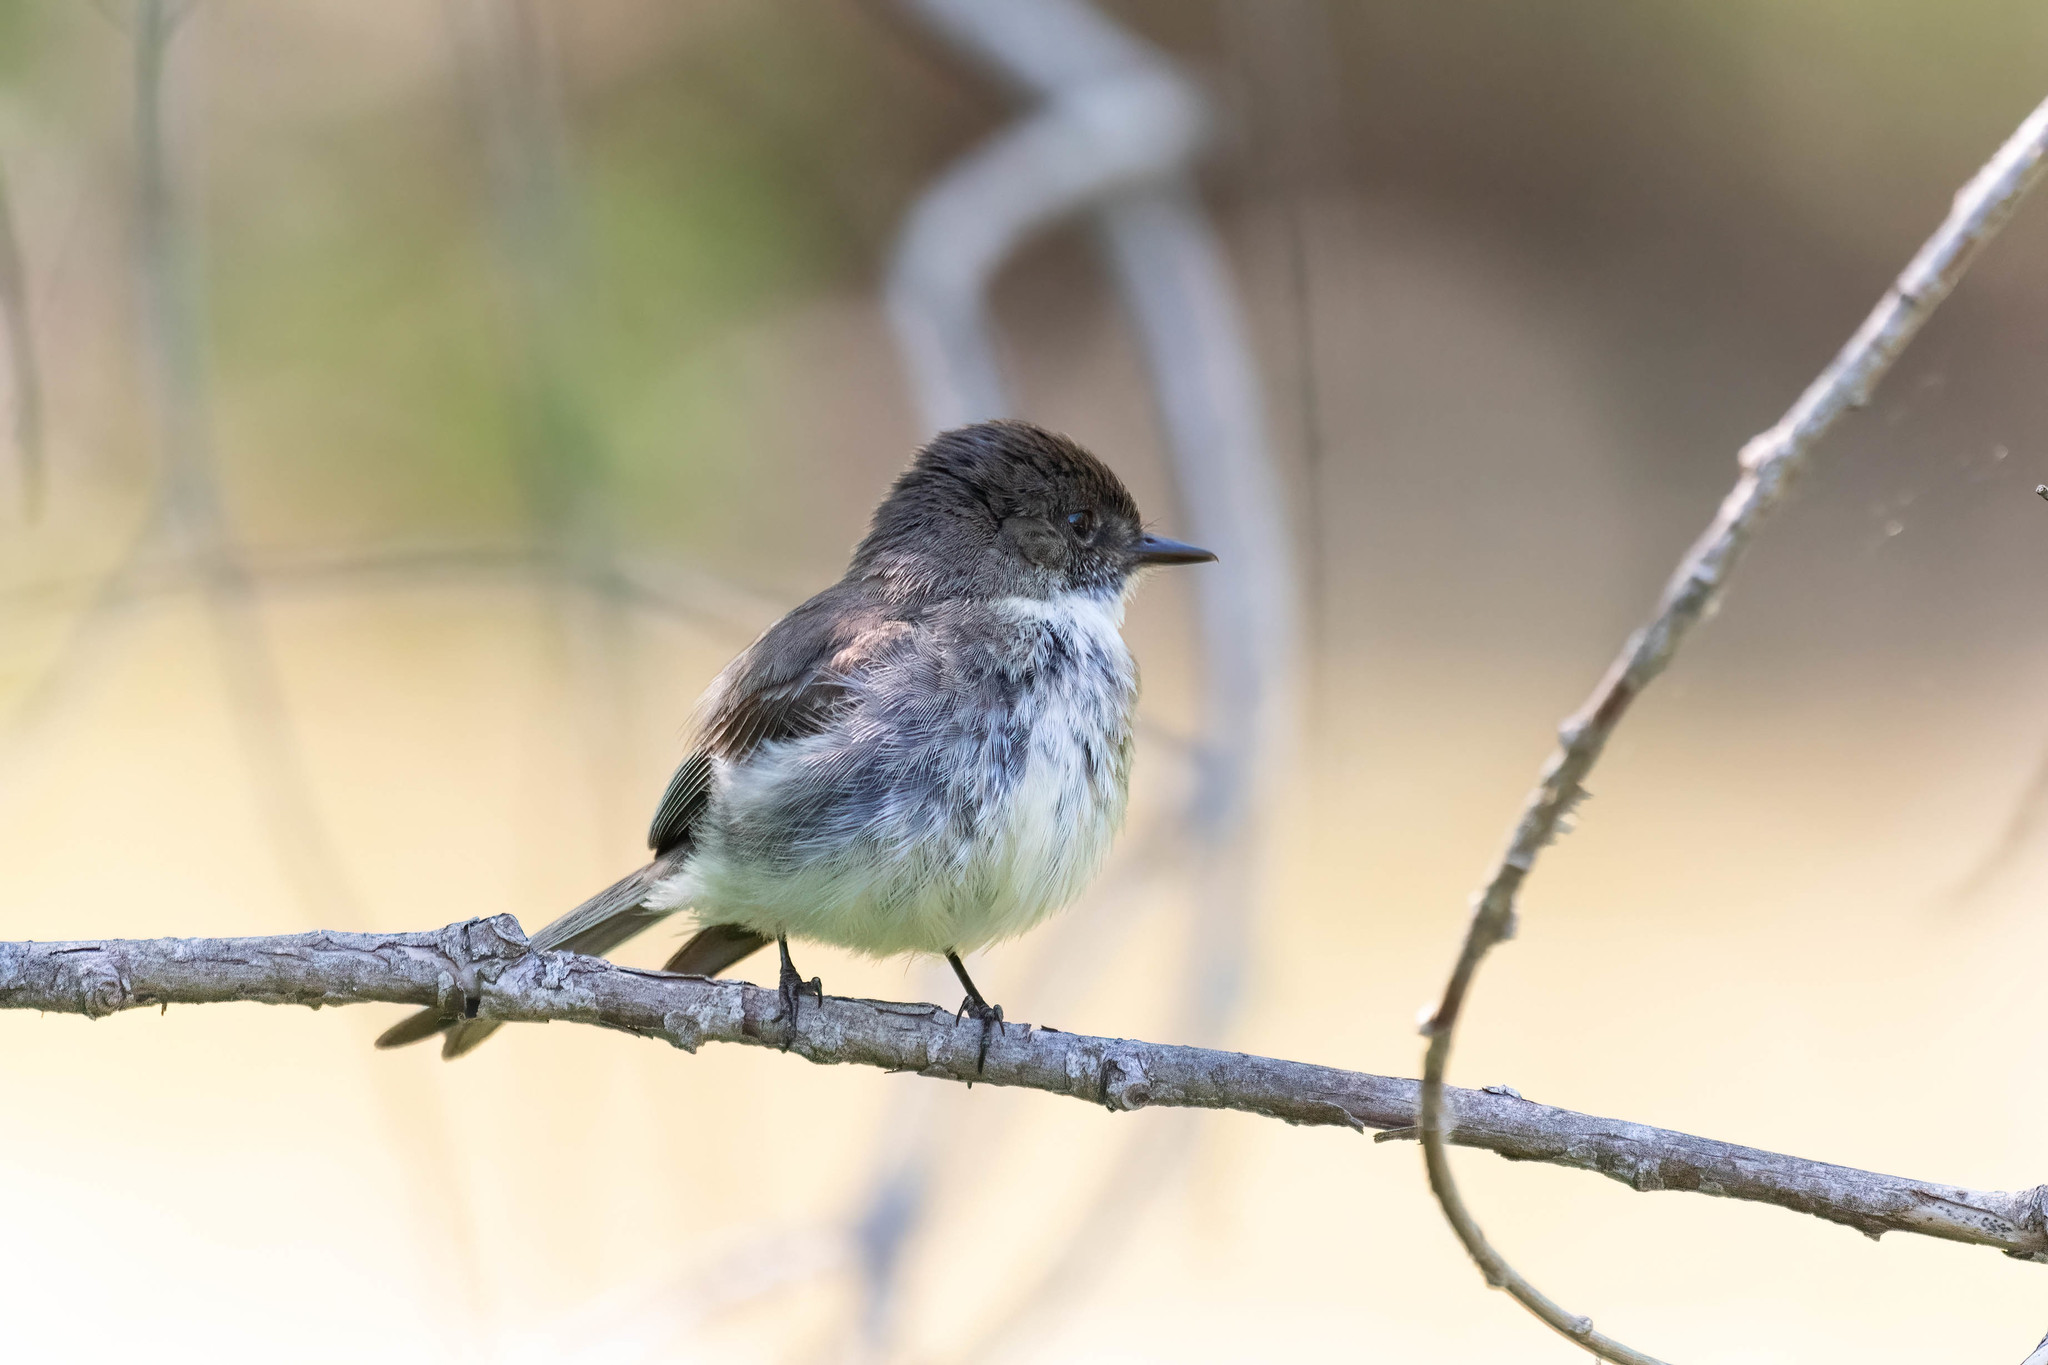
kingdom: Animalia
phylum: Chordata
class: Aves
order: Passeriformes
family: Tyrannidae
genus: Sayornis
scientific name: Sayornis phoebe
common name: Eastern phoebe
